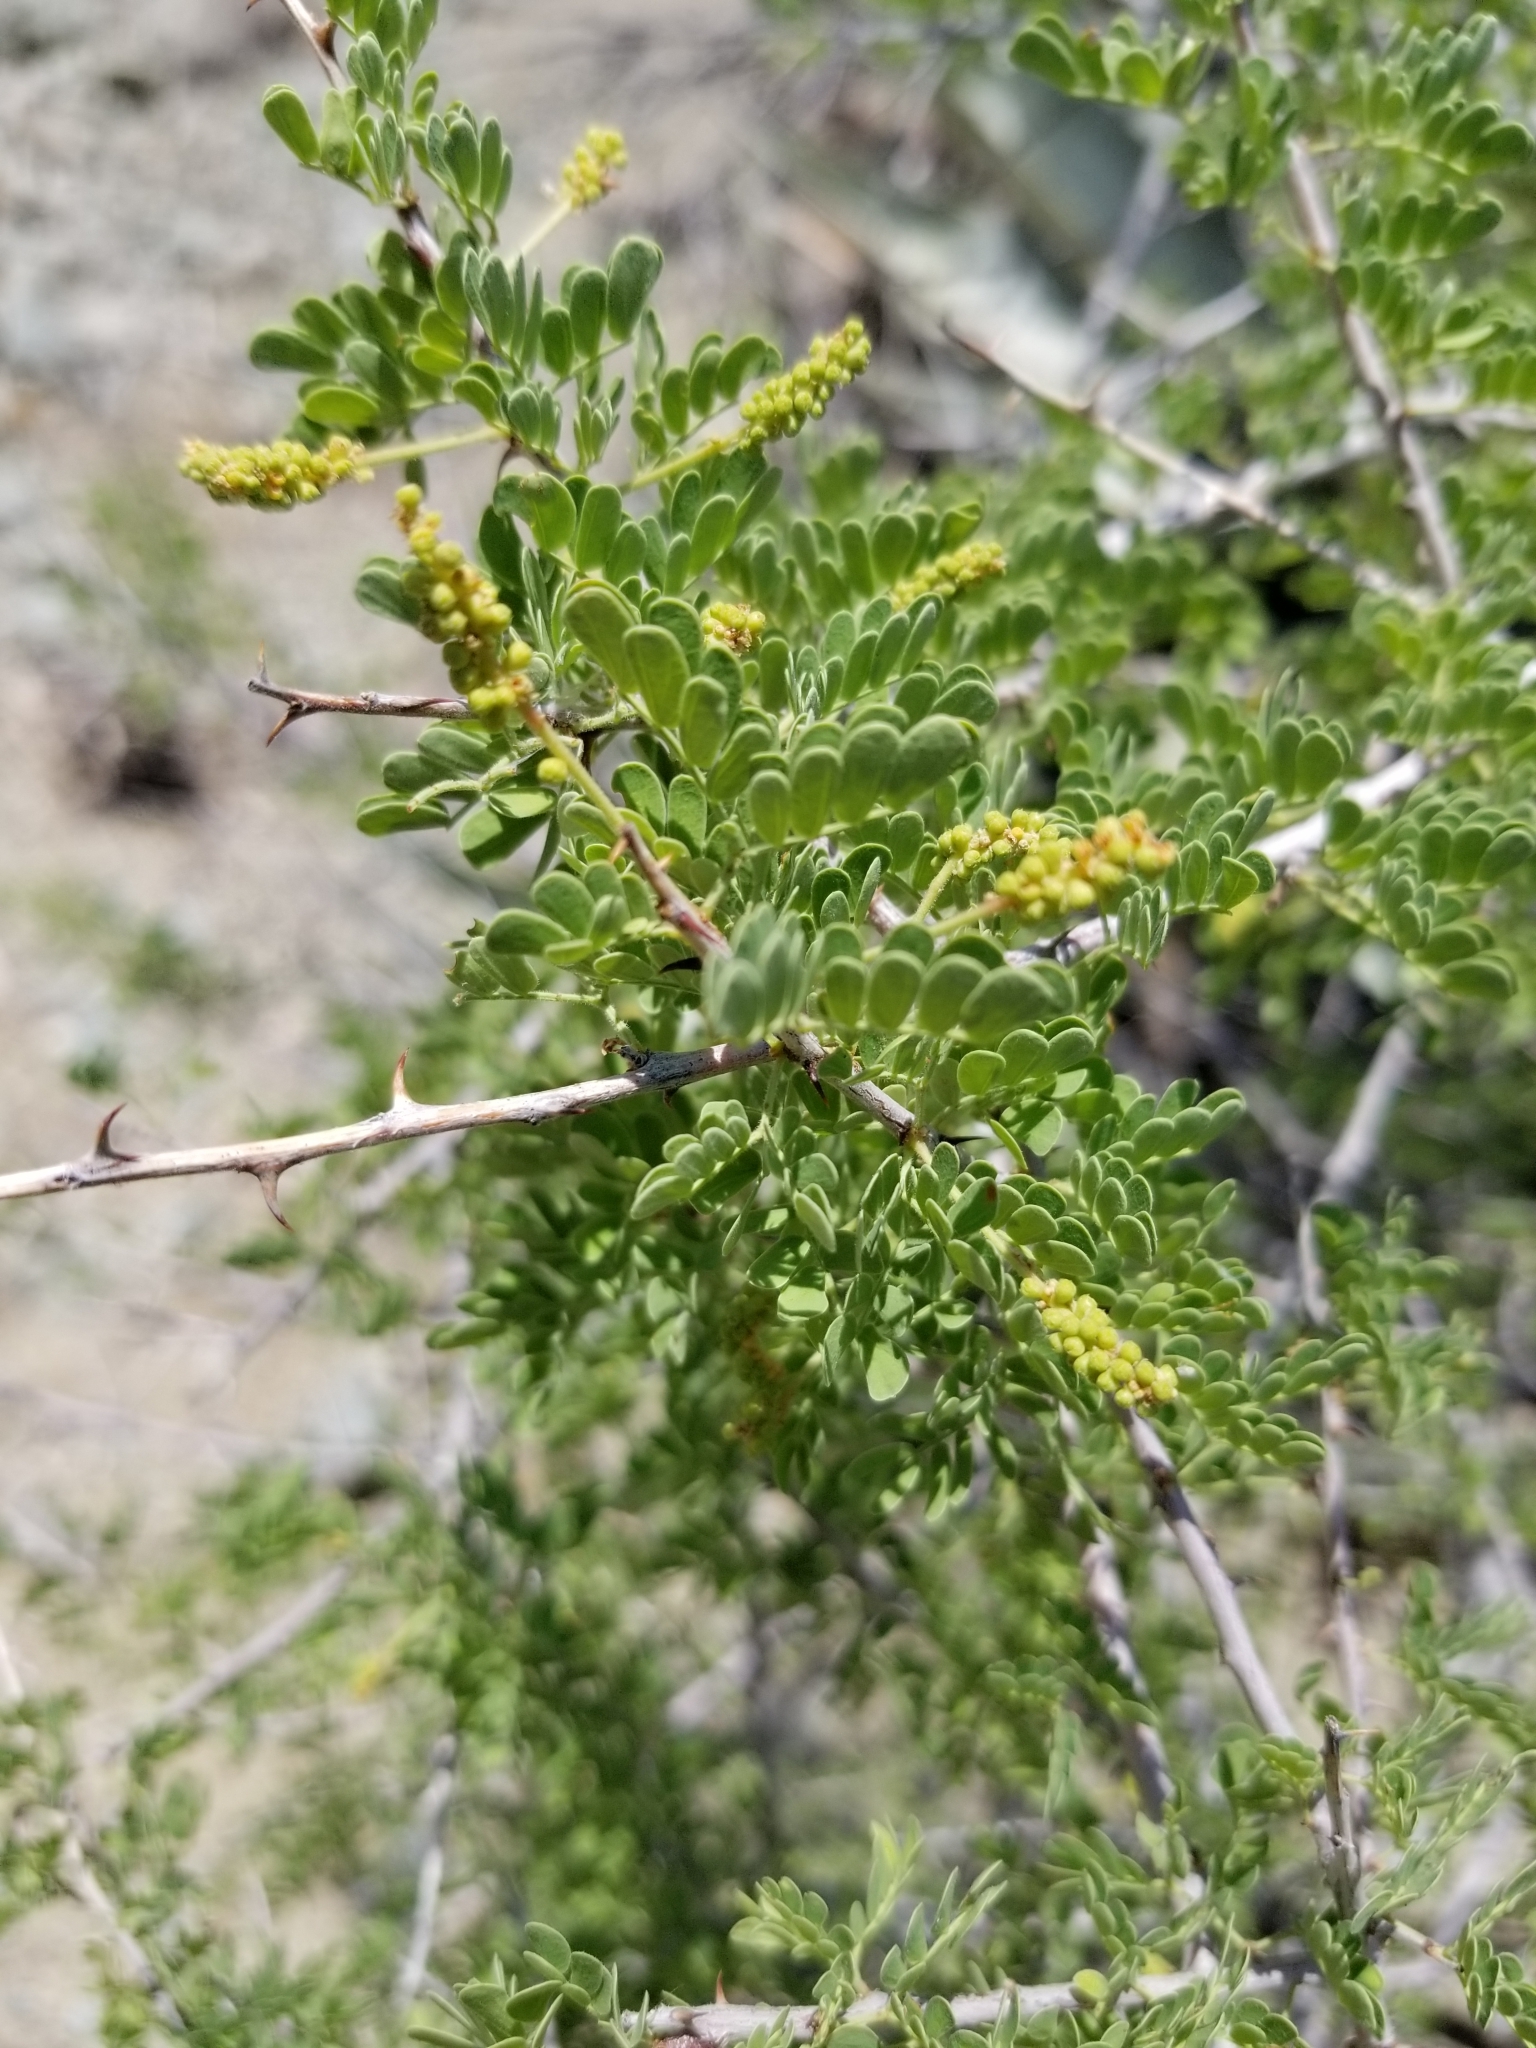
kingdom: Plantae
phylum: Tracheophyta
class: Magnoliopsida
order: Fabales
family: Fabaceae
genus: Senegalia
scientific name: Senegalia greggii
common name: Texas-mimosa
